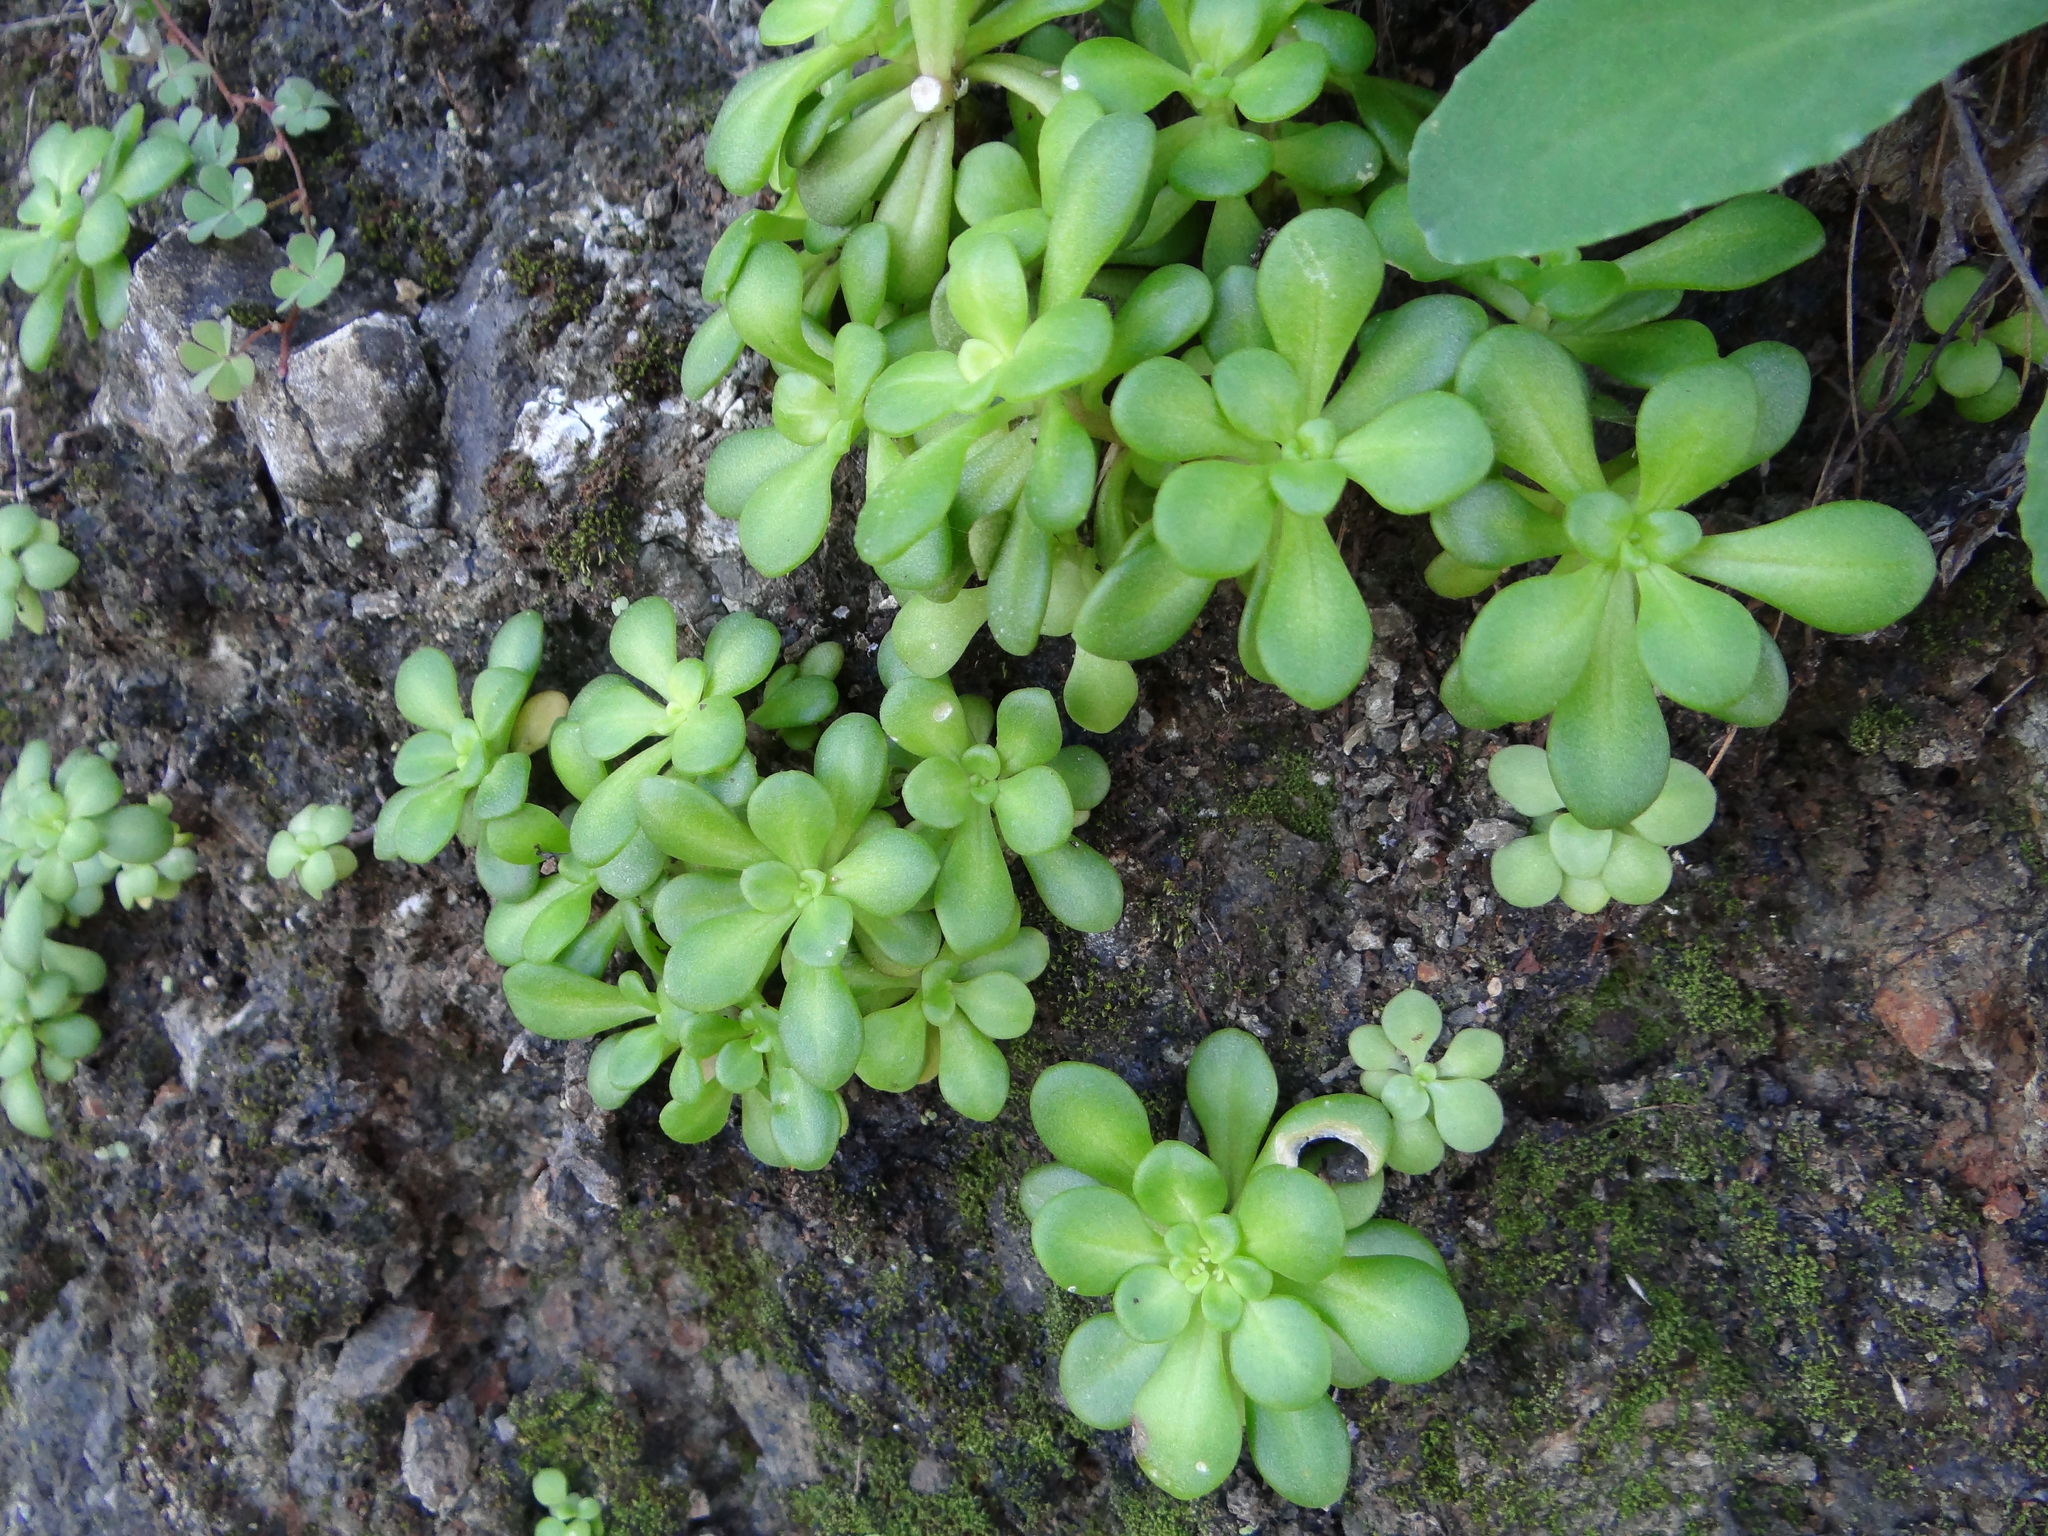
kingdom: Plantae
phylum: Tracheophyta
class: Magnoliopsida
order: Saxifragales
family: Crassulaceae
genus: Sedum
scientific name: Sedum formosanum
